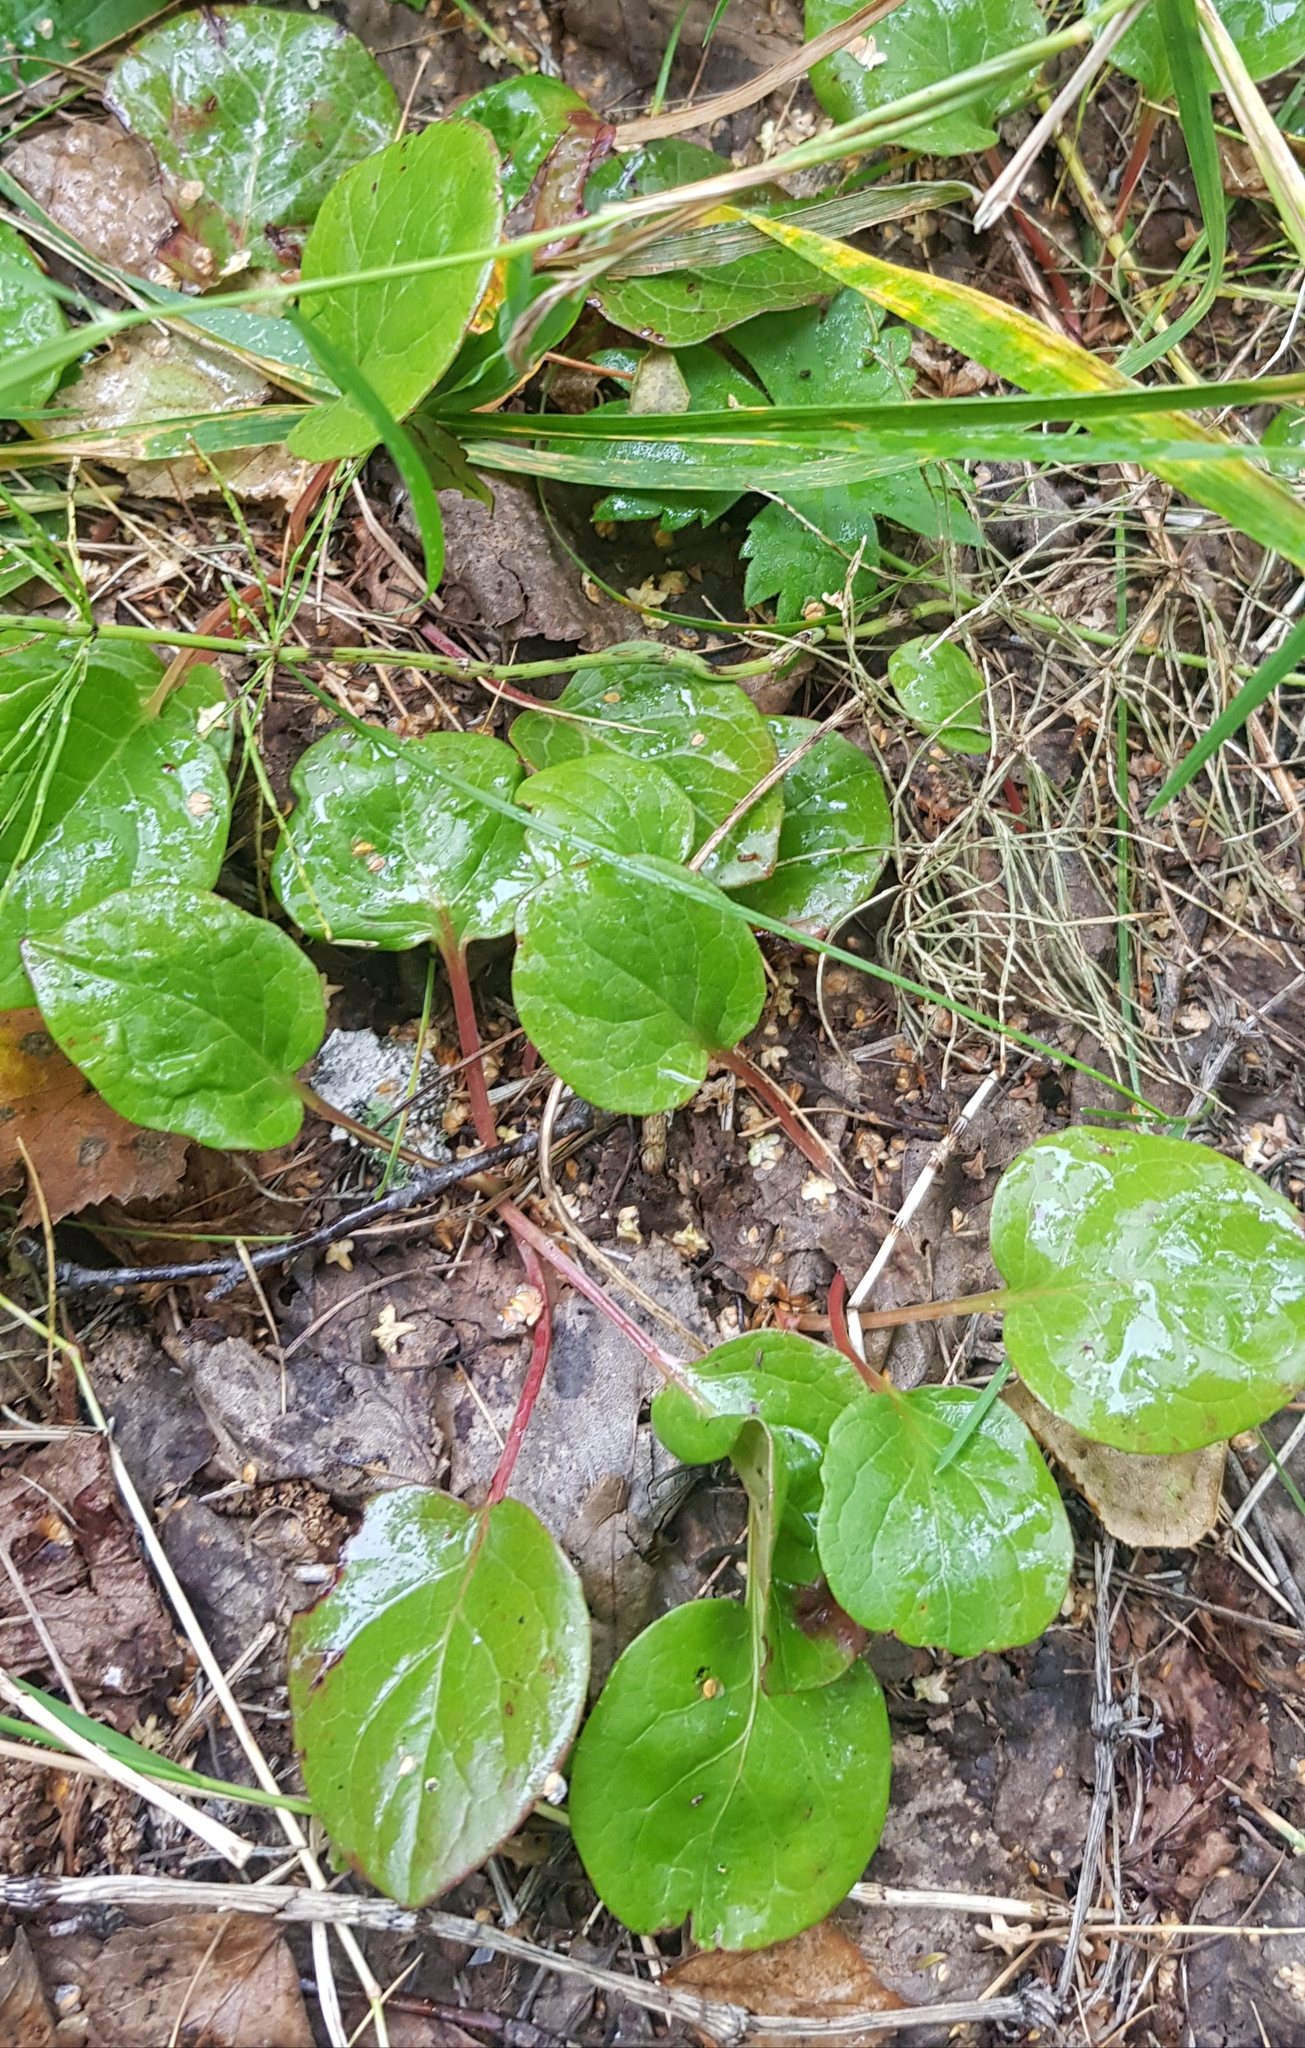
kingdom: Plantae
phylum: Tracheophyta
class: Magnoliopsida
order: Ericales
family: Ericaceae
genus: Pyrola
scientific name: Pyrola rotundifolia
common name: Round-leaved wintergreen
